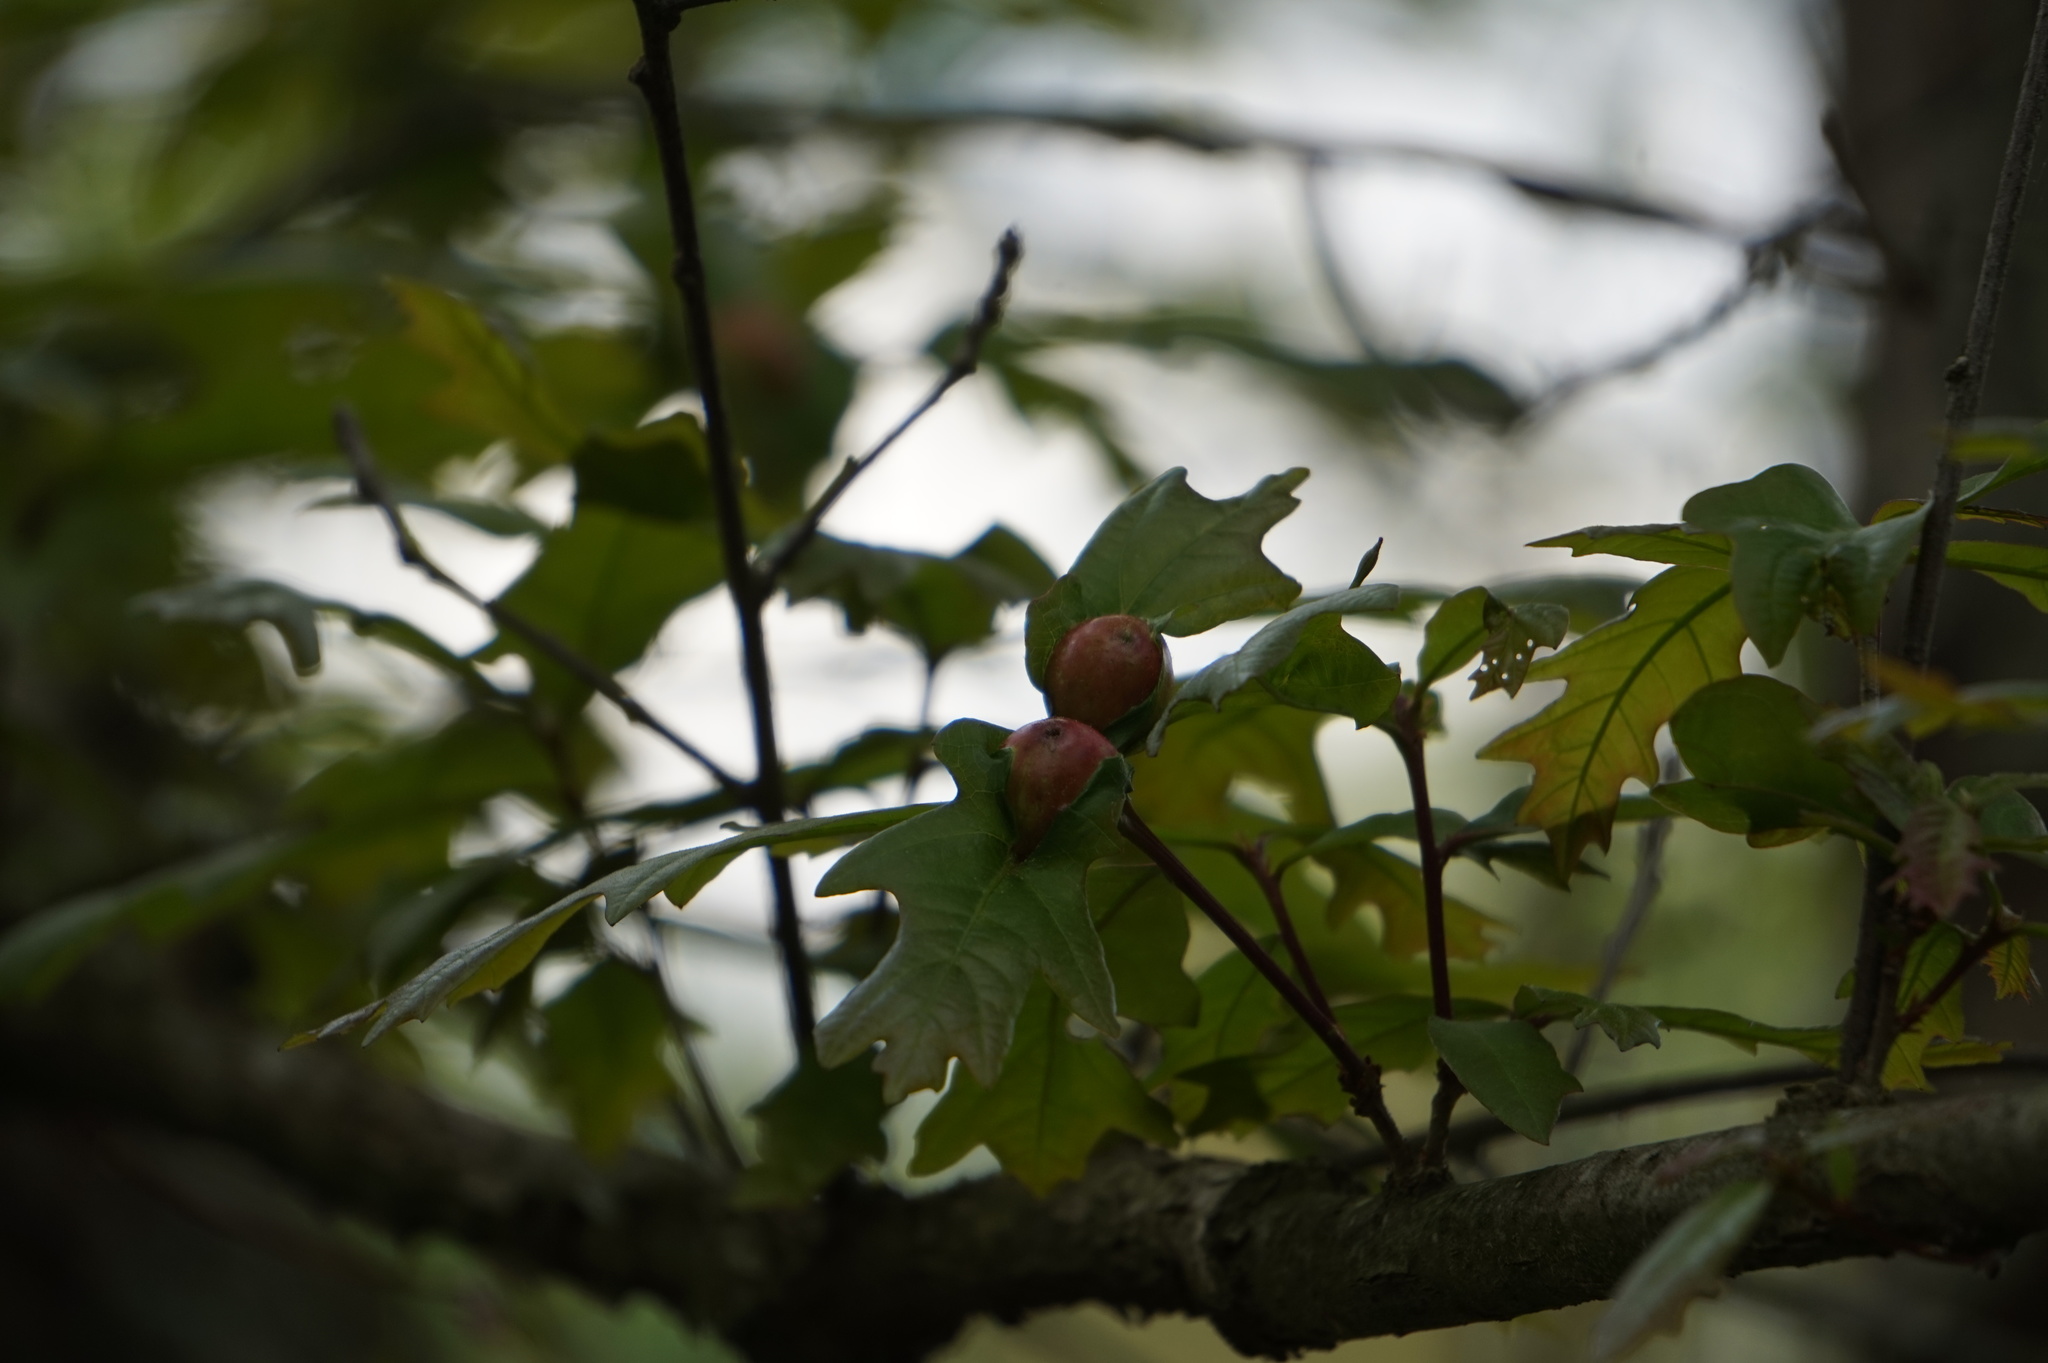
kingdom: Animalia
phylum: Arthropoda
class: Insecta
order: Hymenoptera
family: Cynipidae
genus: Andricus
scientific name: Andricus
